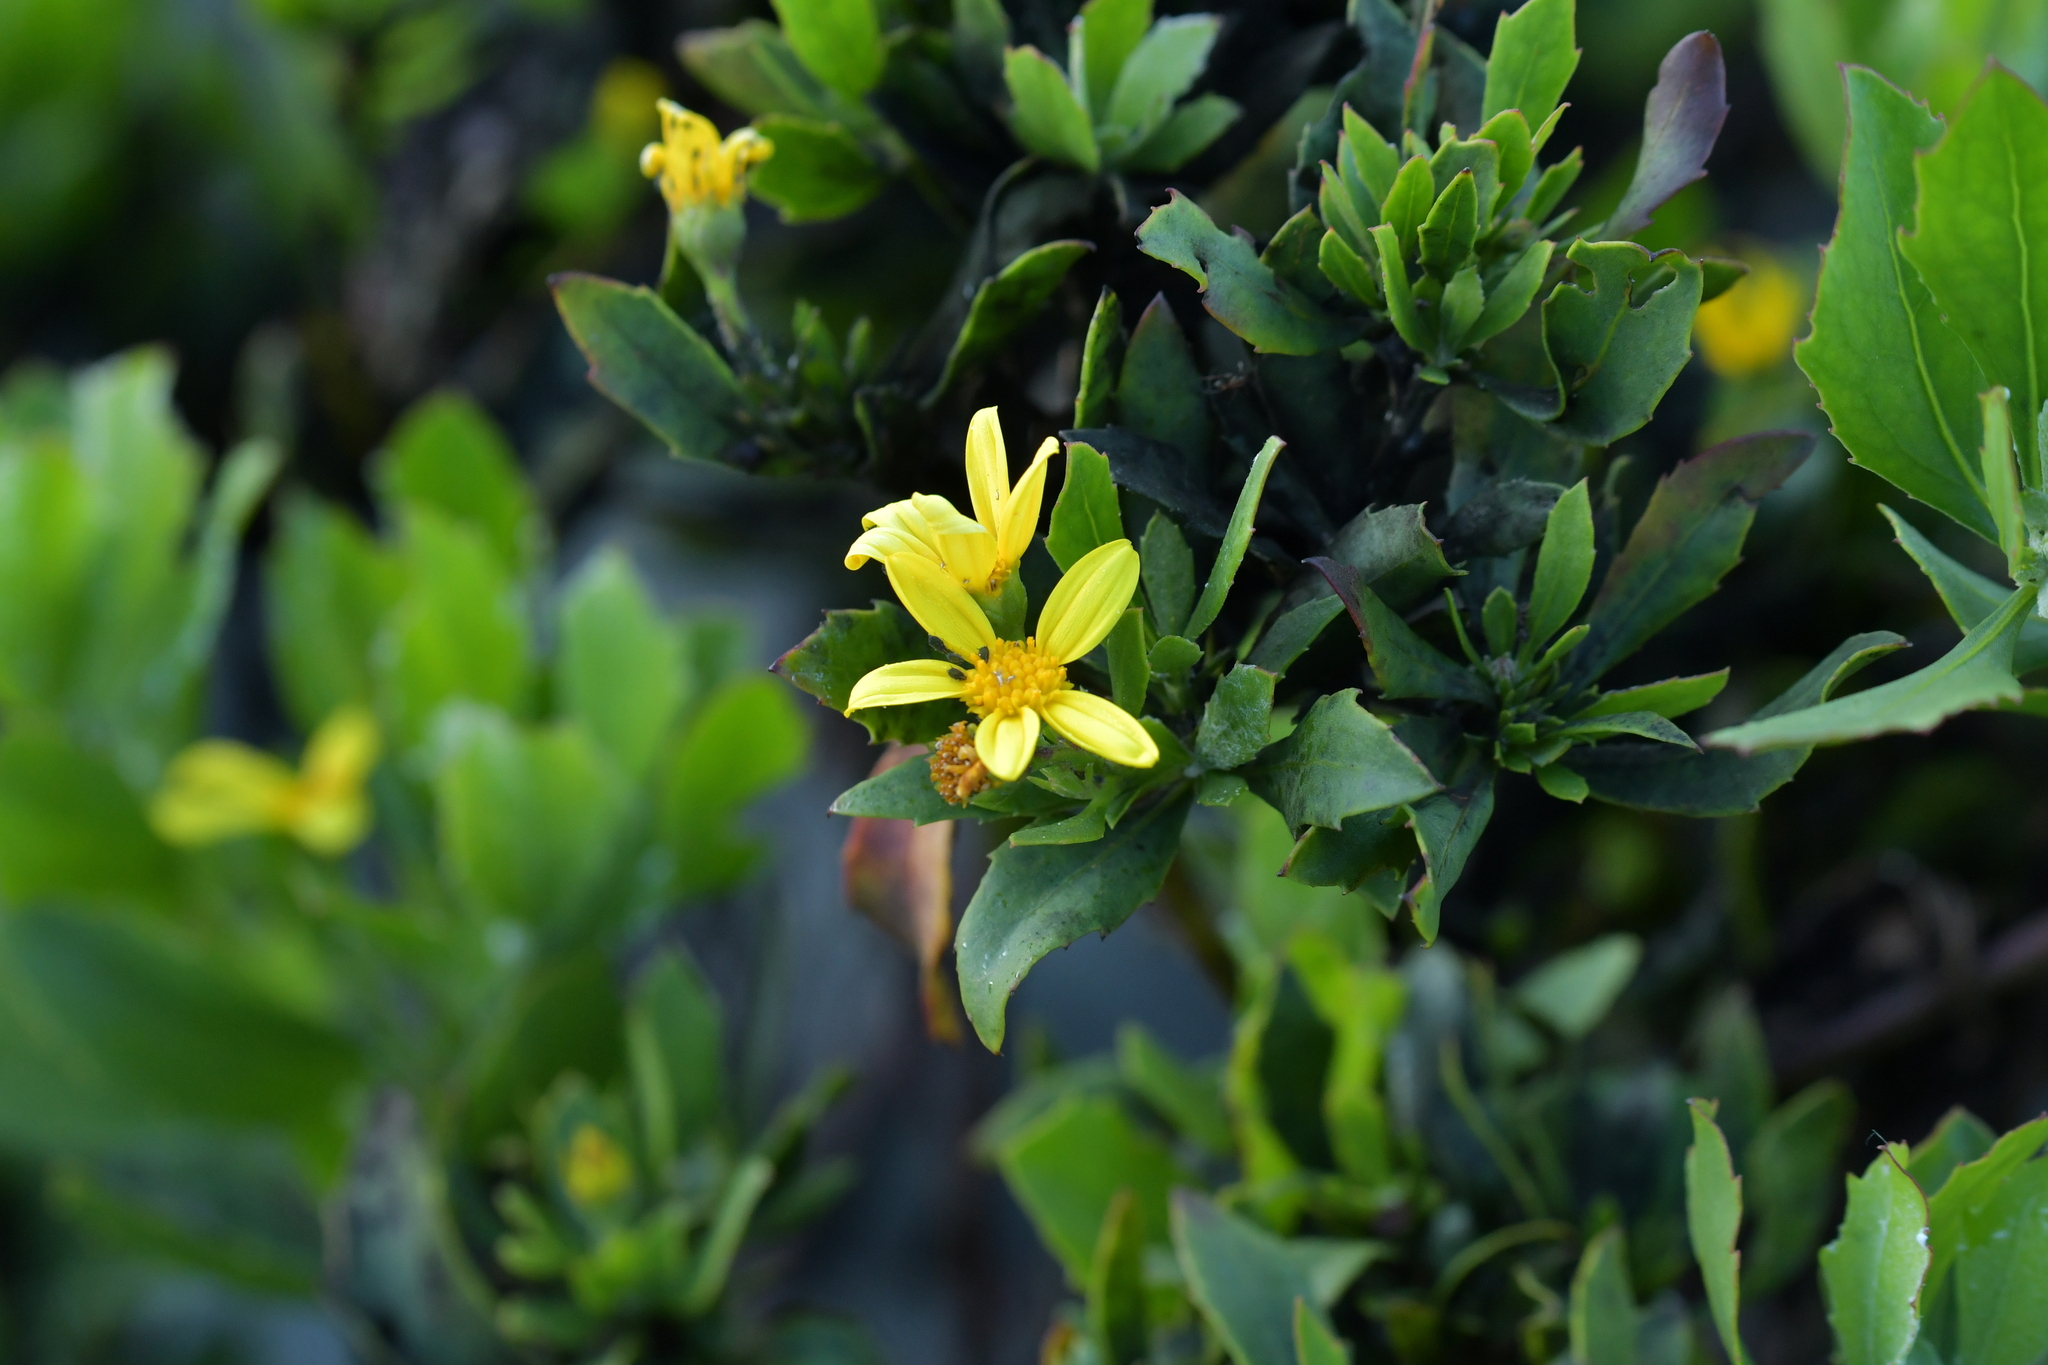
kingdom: Plantae
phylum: Tracheophyta
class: Magnoliopsida
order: Asterales
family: Asteraceae
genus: Osteospermum
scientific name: Osteospermum moniliferum
